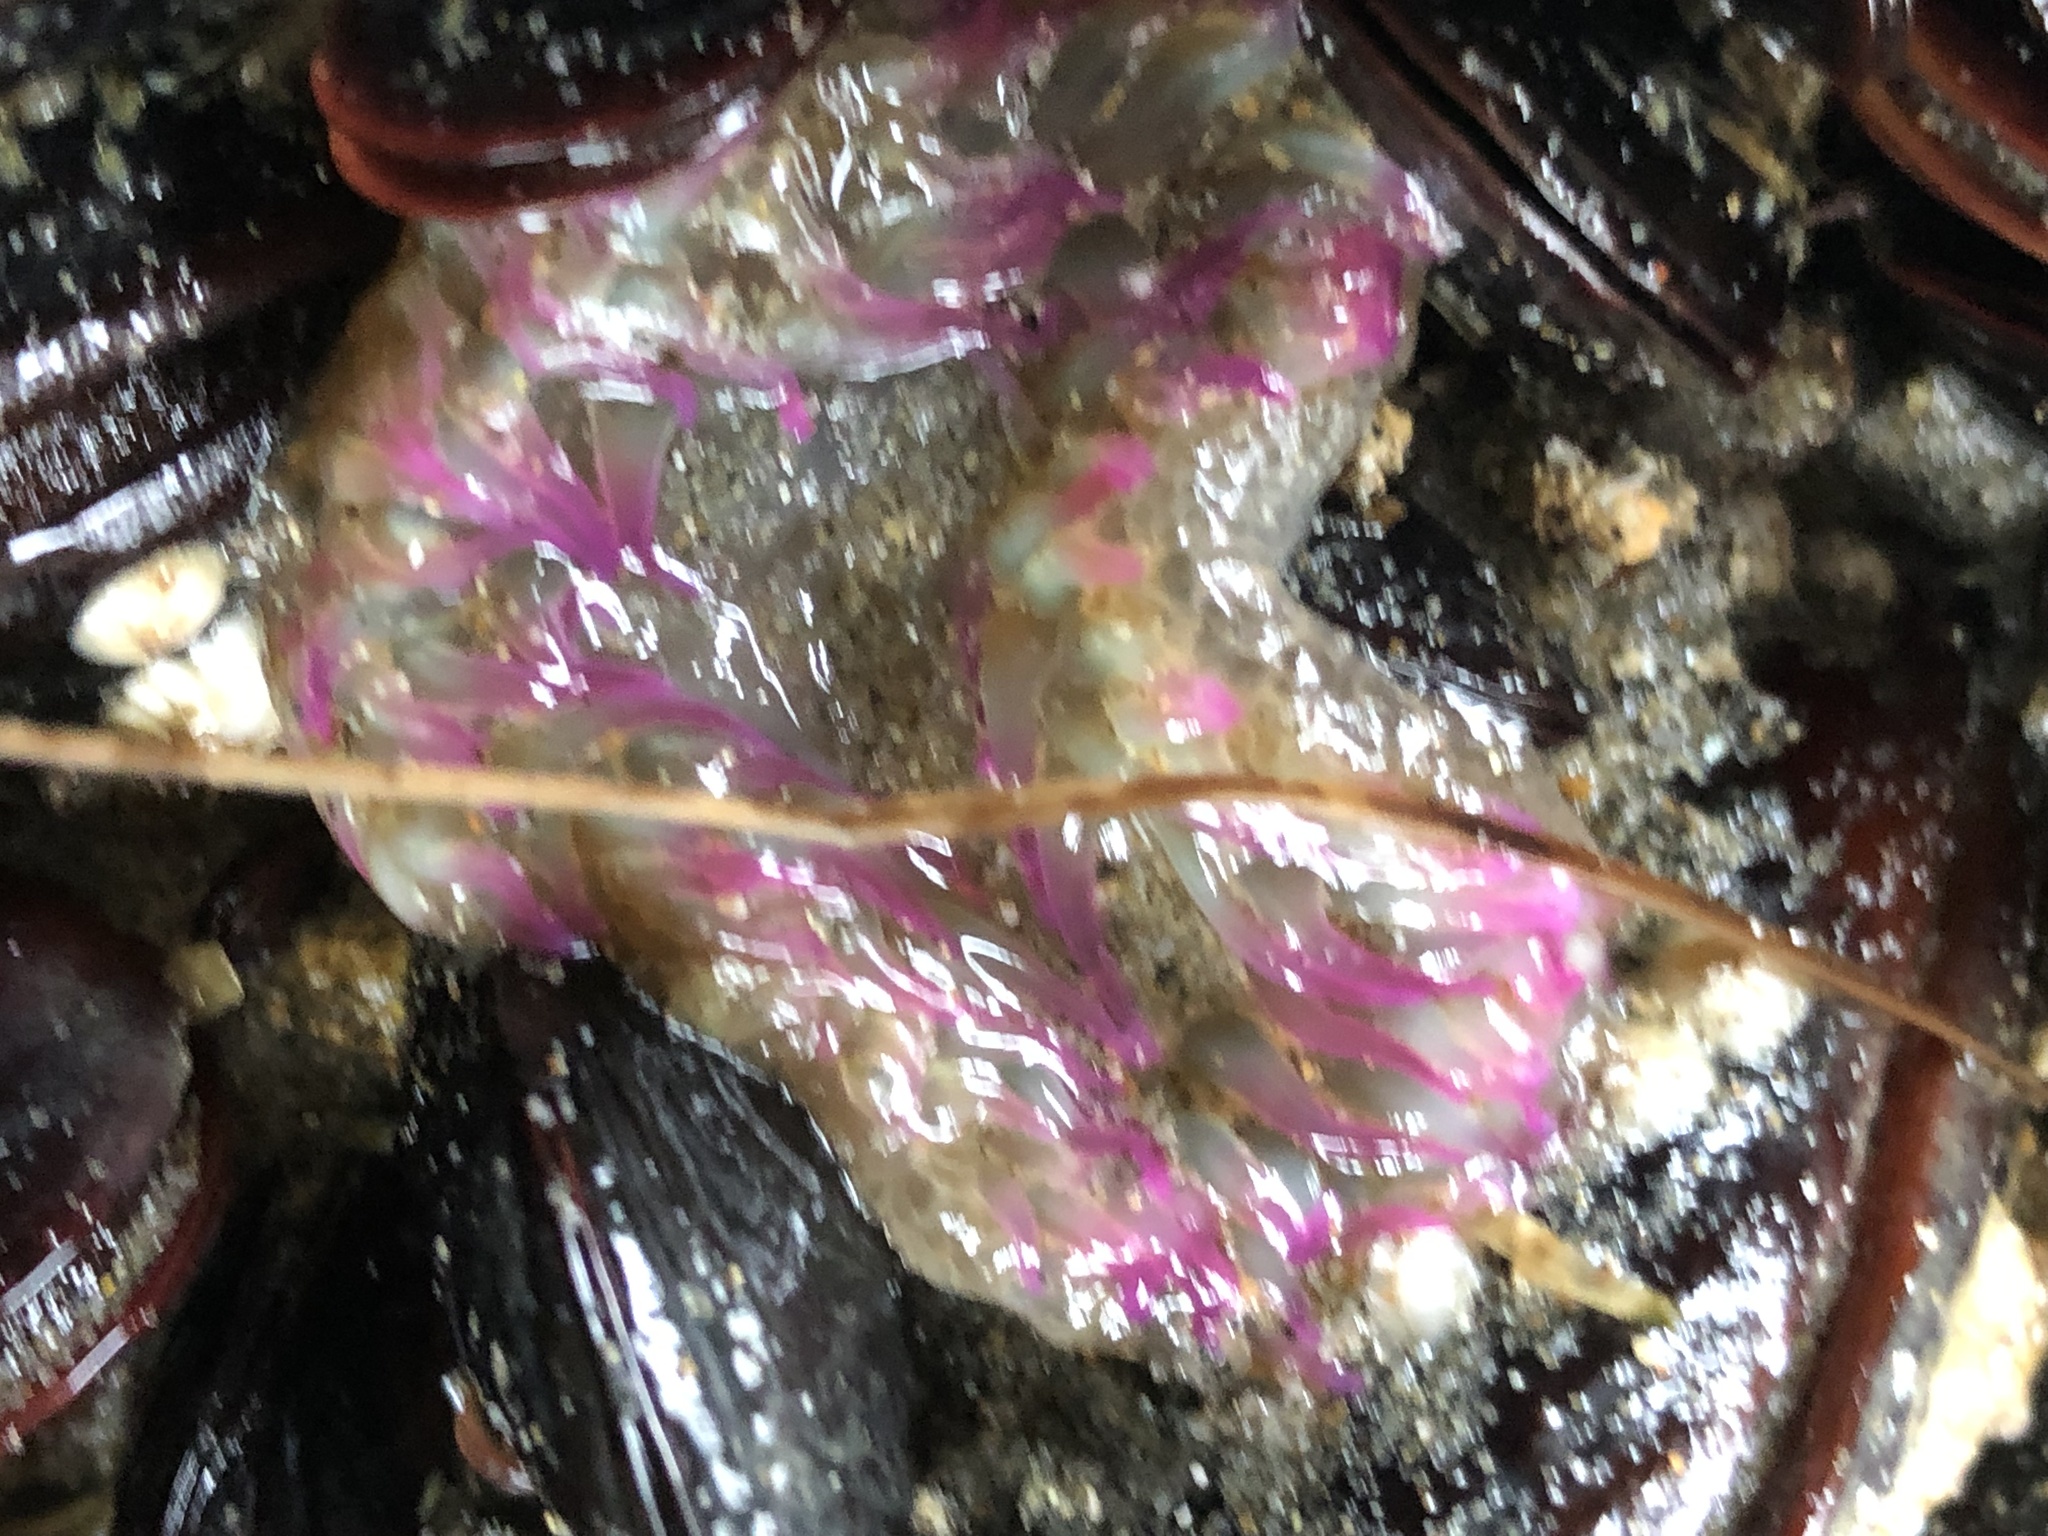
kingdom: Animalia
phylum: Cnidaria
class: Anthozoa
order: Actiniaria
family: Actiniidae
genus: Anthopleura
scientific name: Anthopleura elegantissima
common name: Clonal anemone
